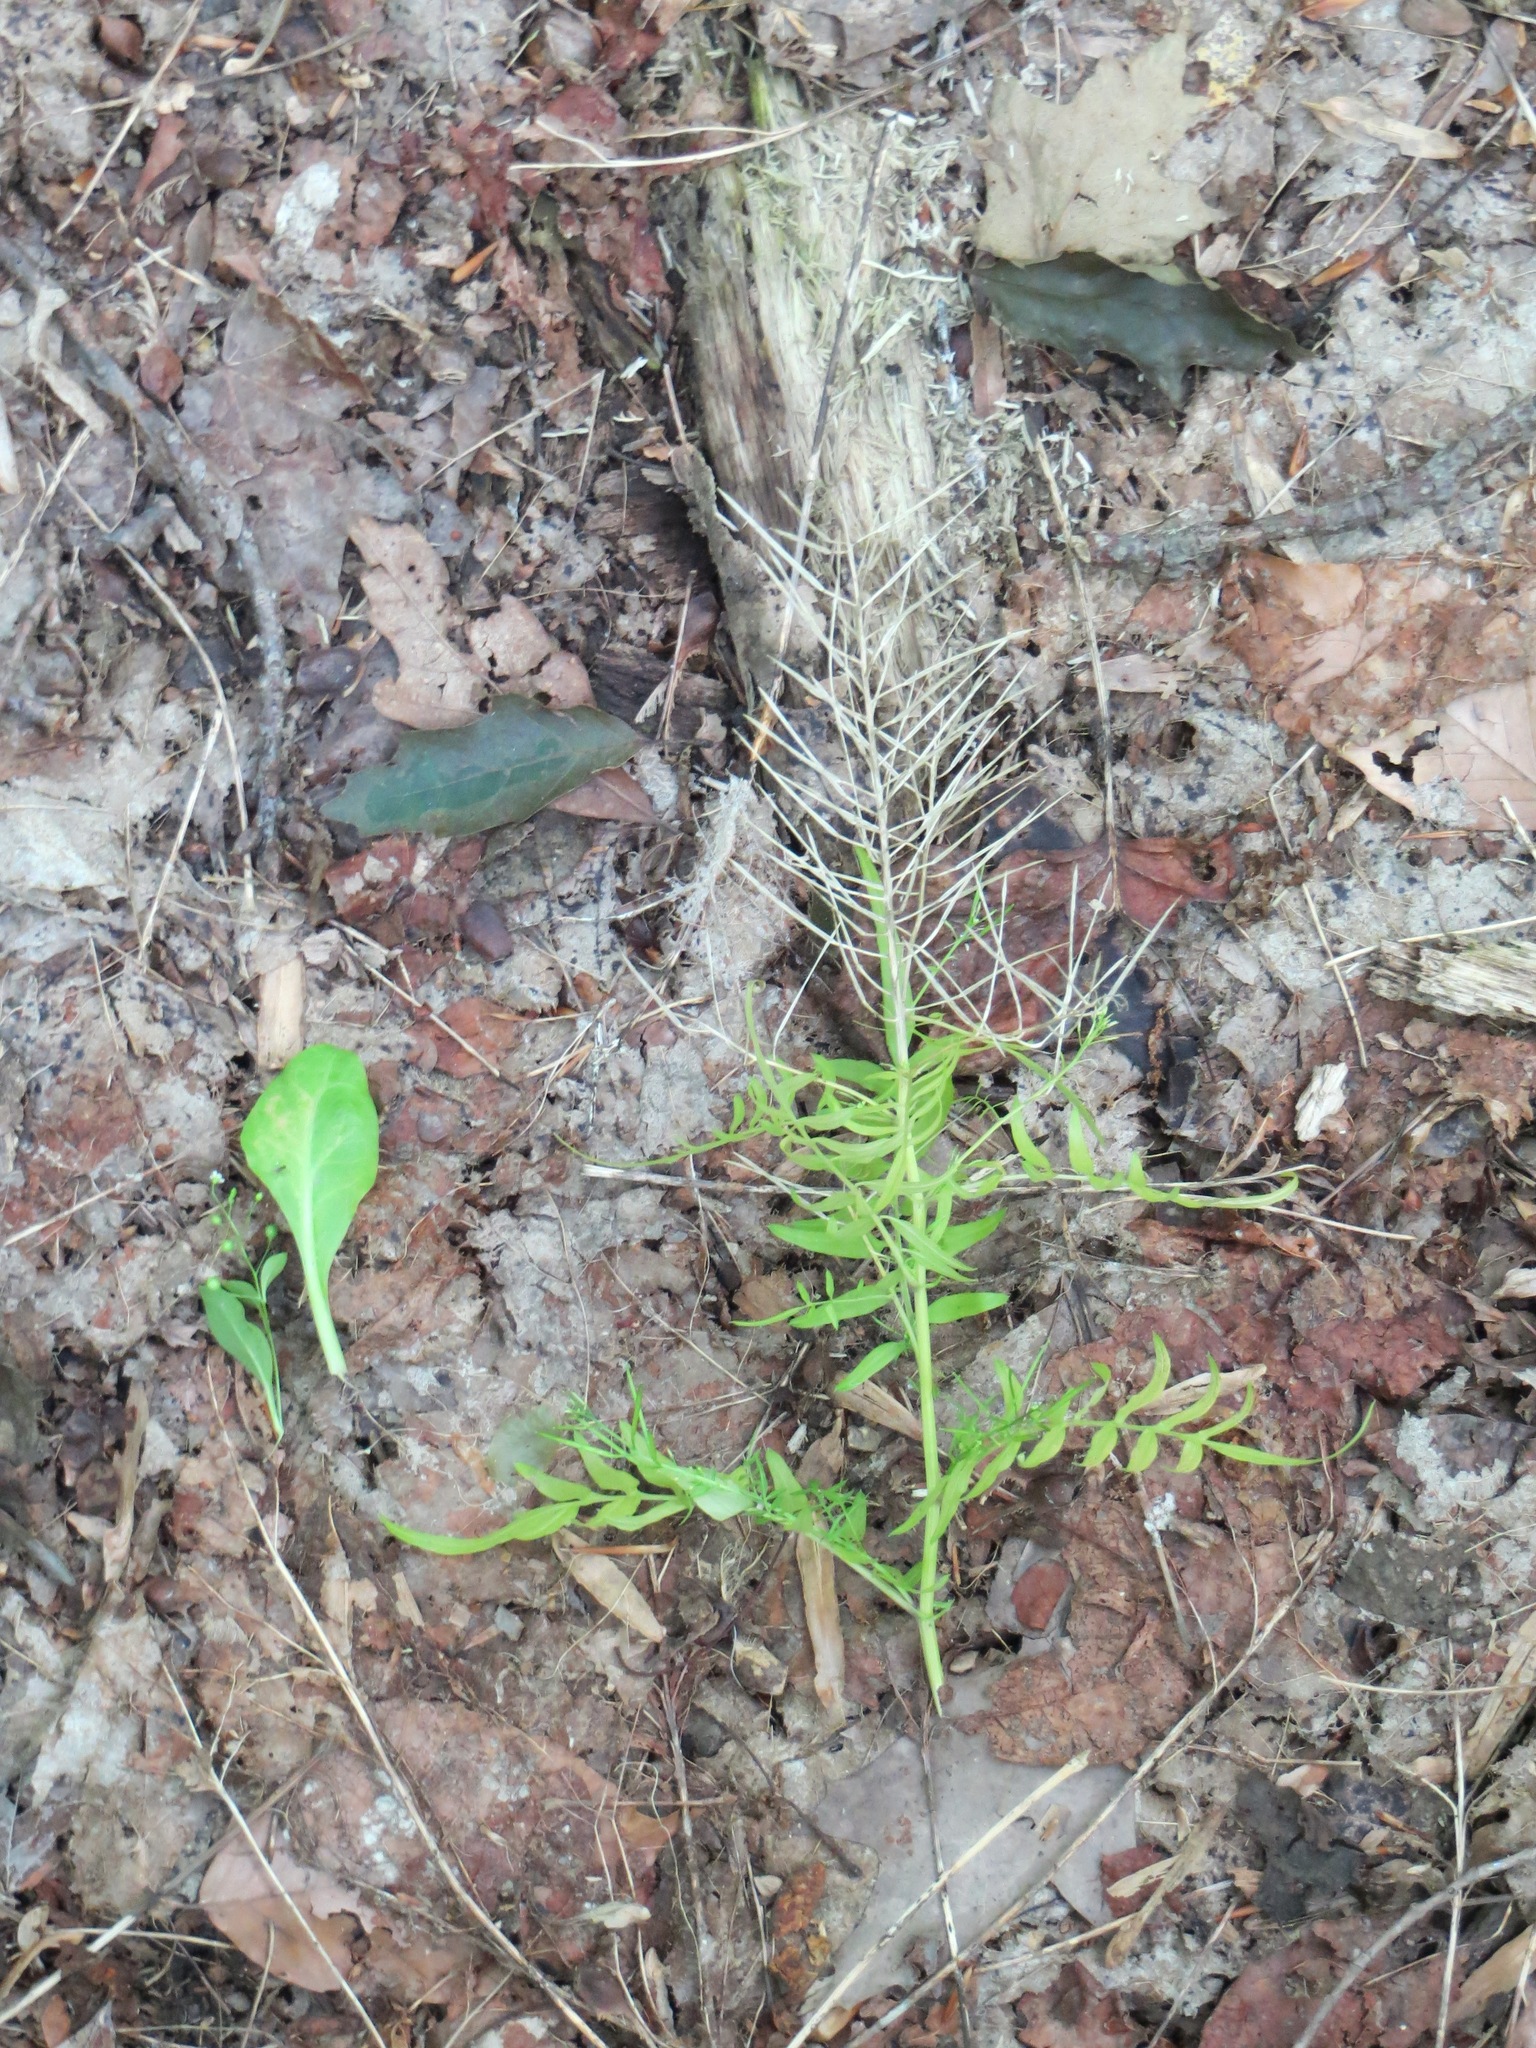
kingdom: Plantae
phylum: Tracheophyta
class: Magnoliopsida
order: Brassicales
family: Brassicaceae
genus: Cardamine
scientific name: Cardamine impatiens
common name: Narrow-leaved bitter-cress
